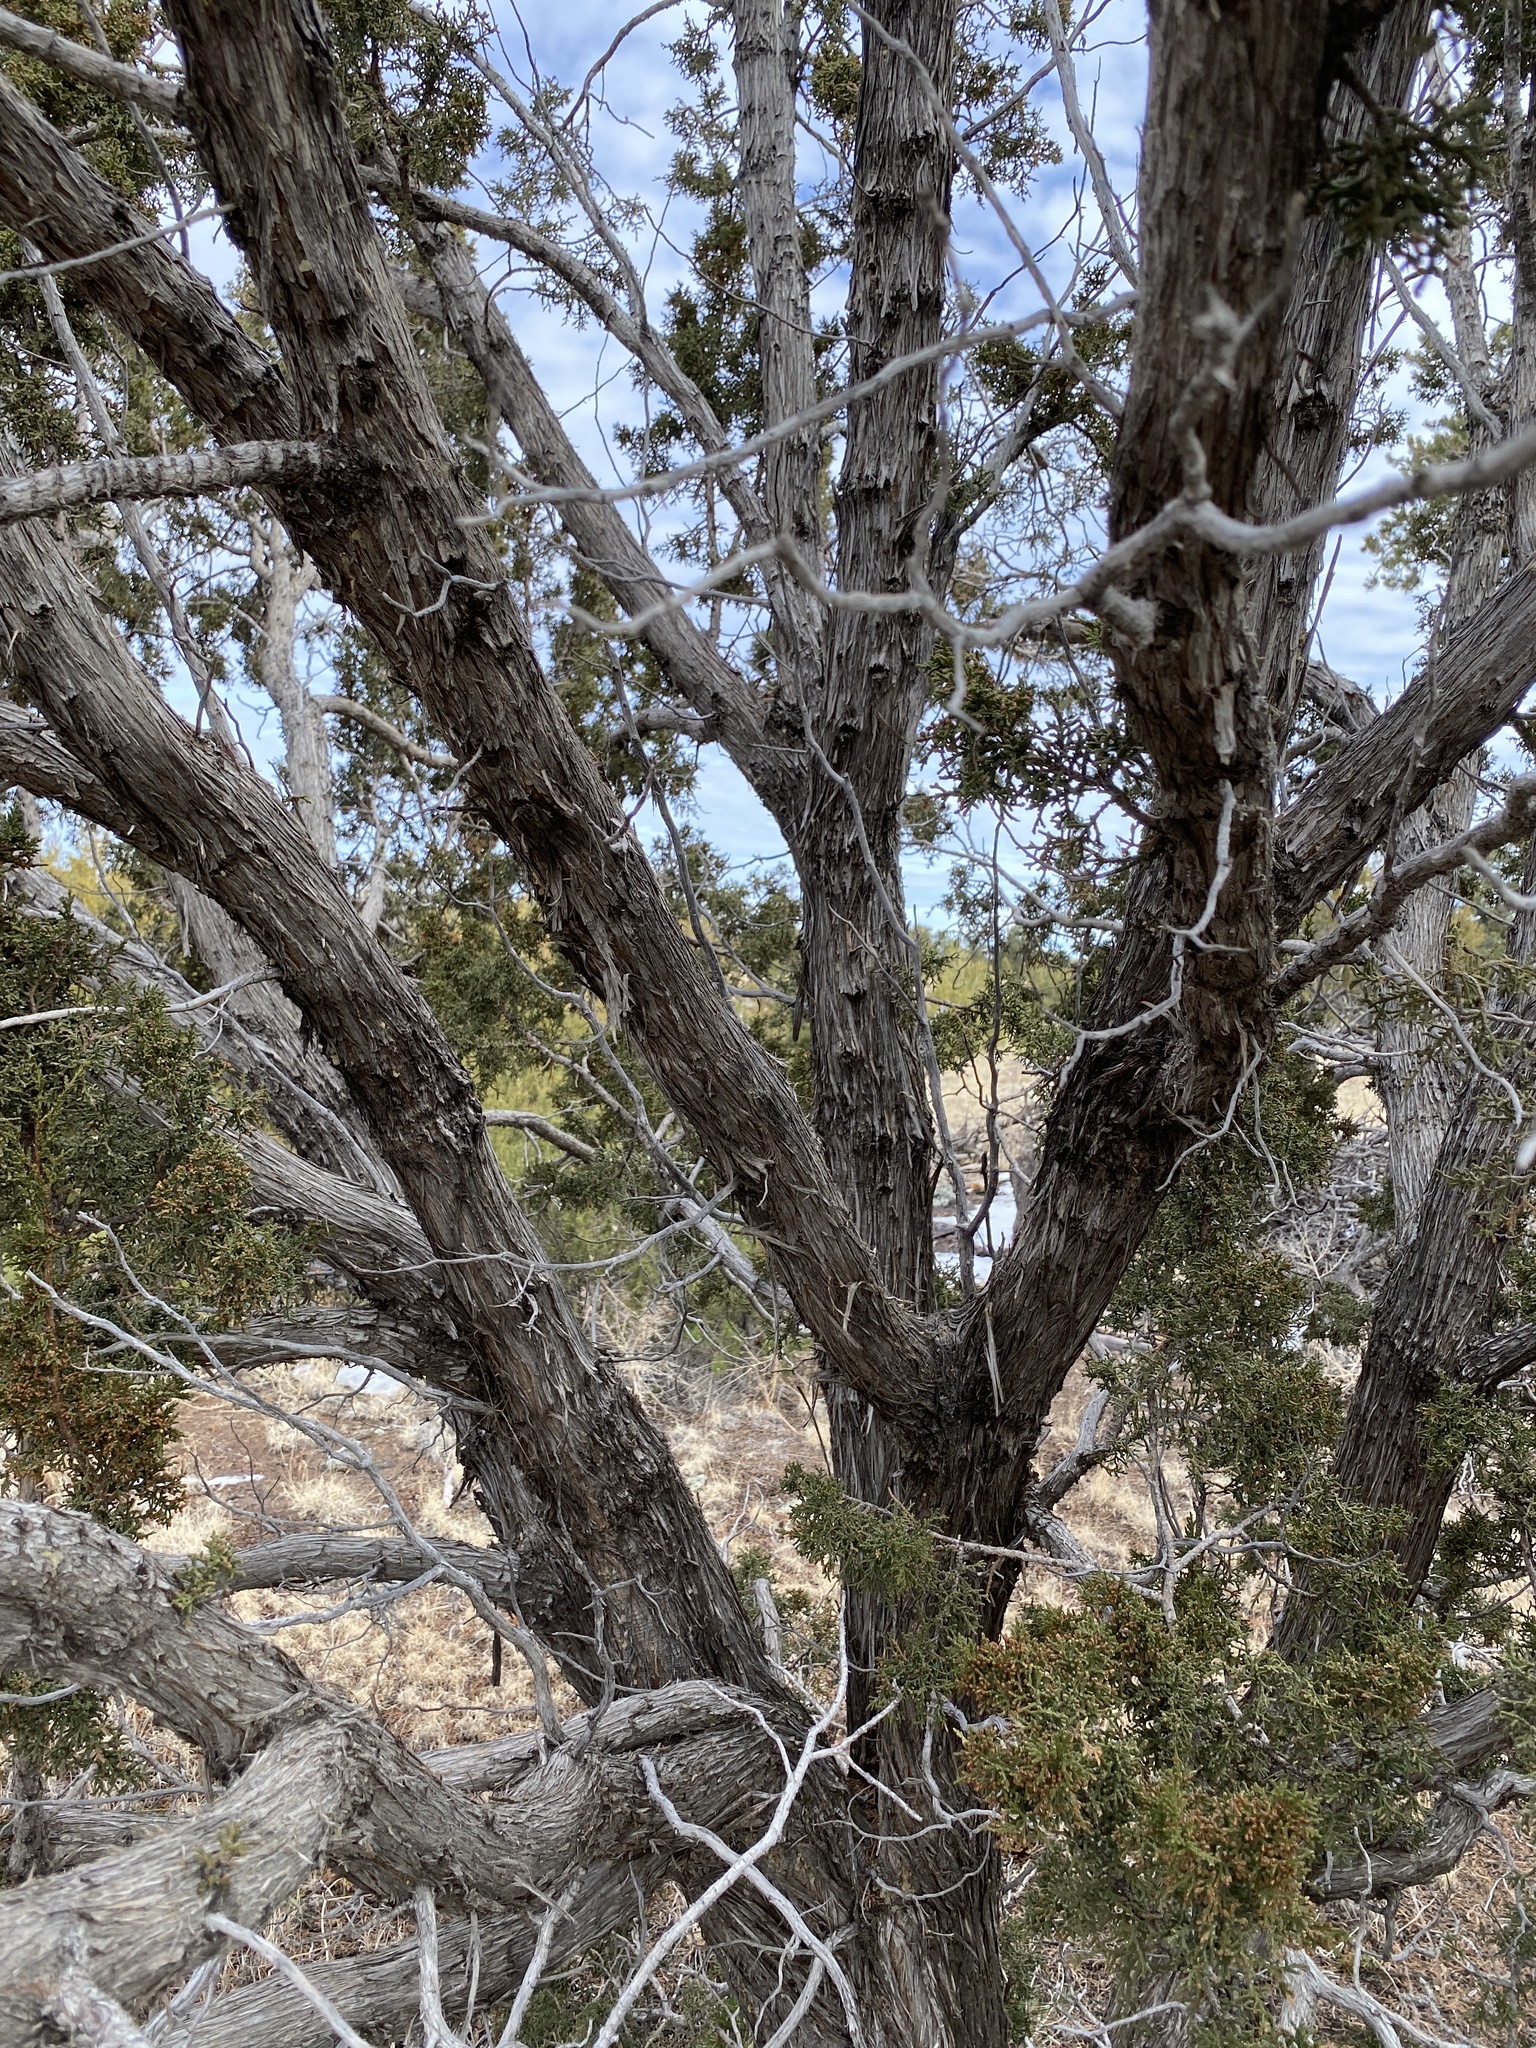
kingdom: Plantae
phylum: Tracheophyta
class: Pinopsida
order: Pinales
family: Cupressaceae
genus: Juniperus
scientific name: Juniperus monosperma
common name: One-seed juniper
